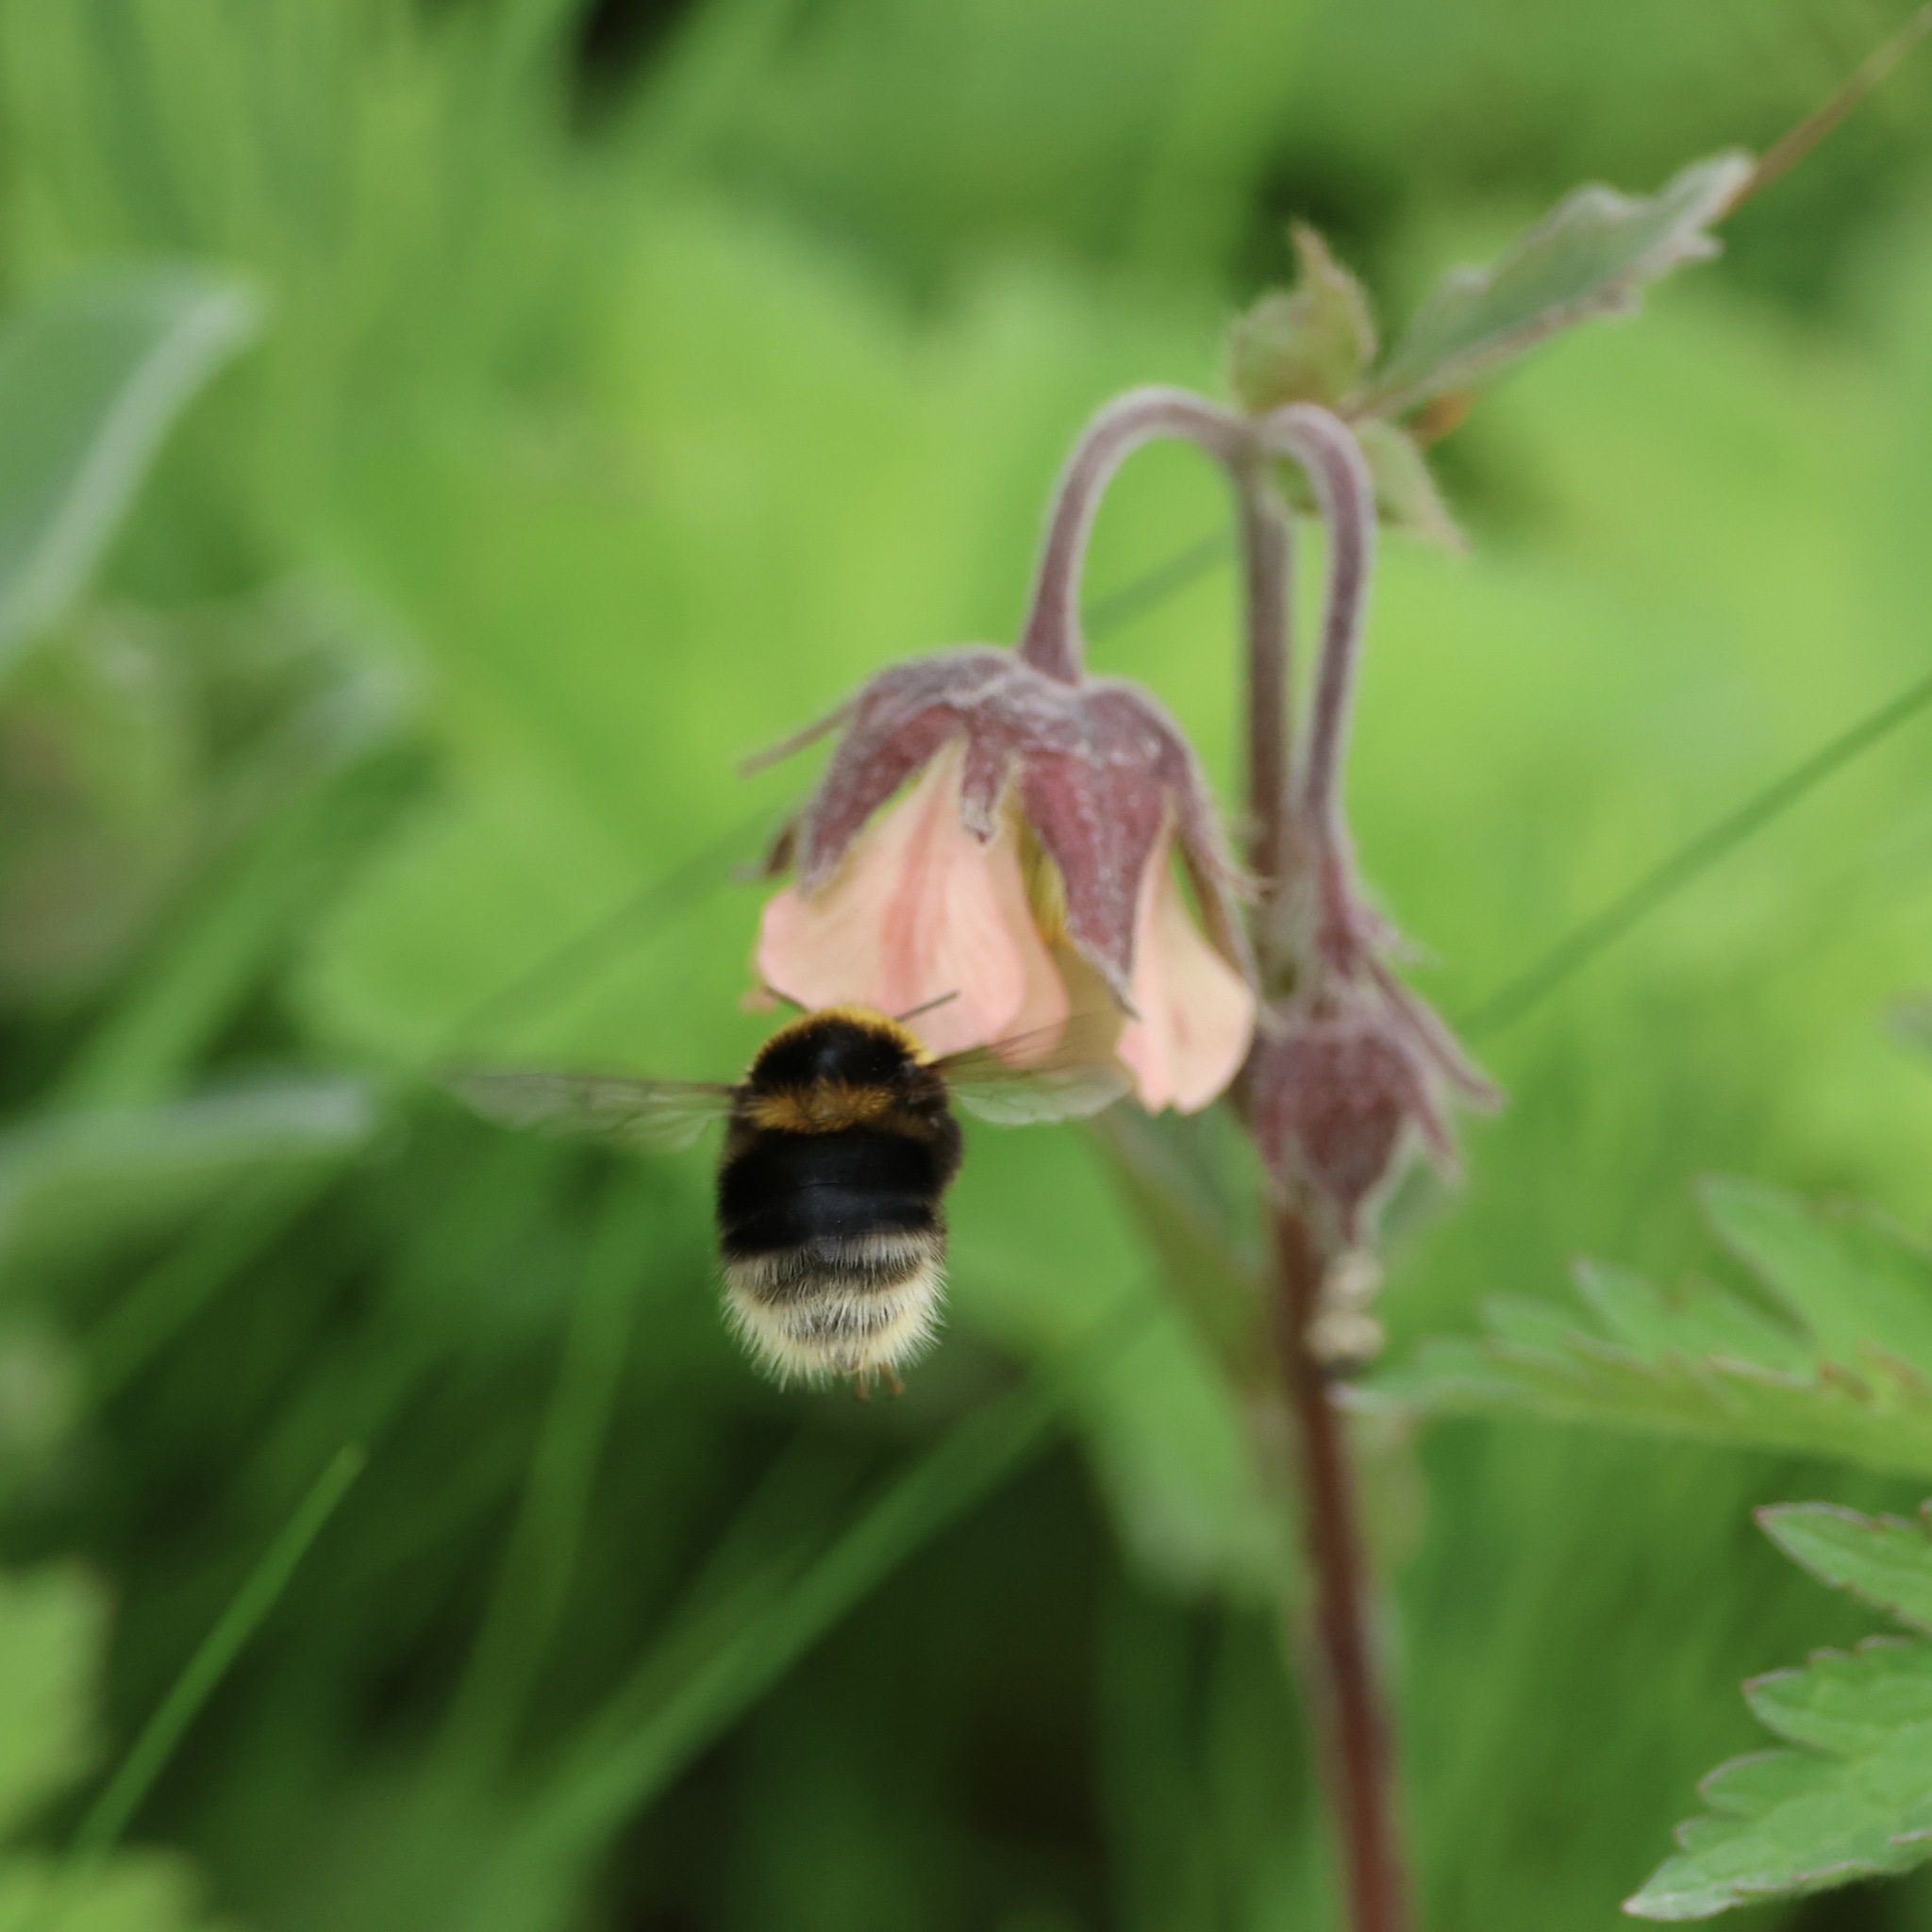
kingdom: Animalia
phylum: Arthropoda
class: Insecta
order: Hymenoptera
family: Apidae
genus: Bombus
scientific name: Bombus jonellus
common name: Heath humble-bee
